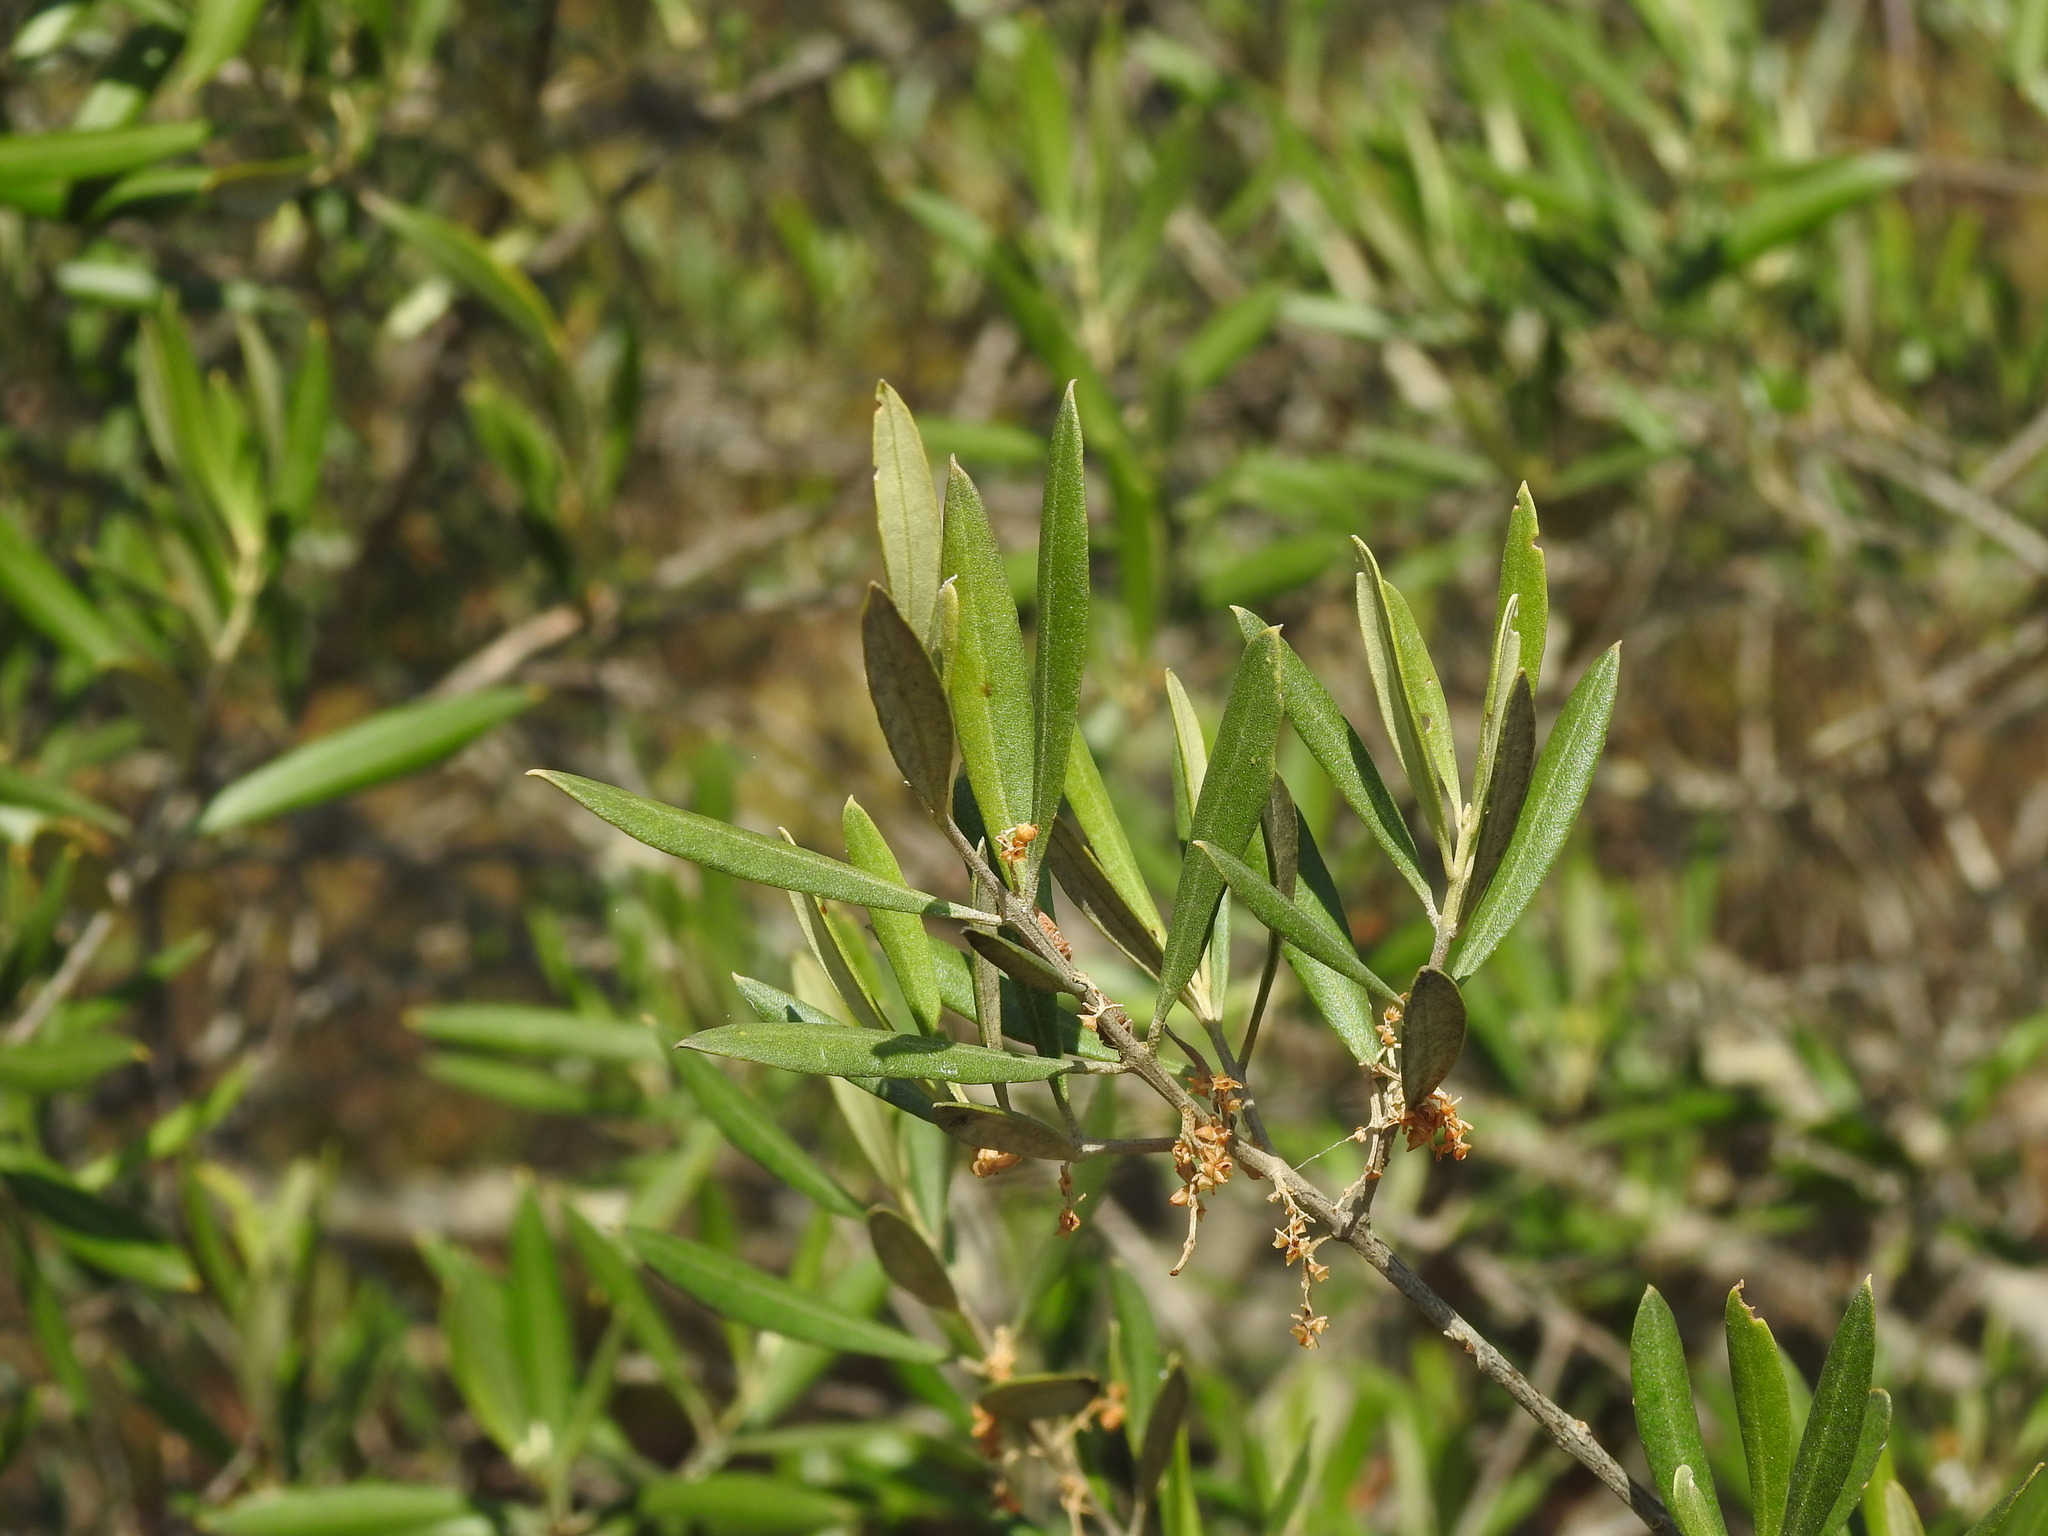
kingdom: Plantae
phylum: Tracheophyta
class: Magnoliopsida
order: Lamiales
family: Oleaceae
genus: Olea
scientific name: Olea europaea
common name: Olive
